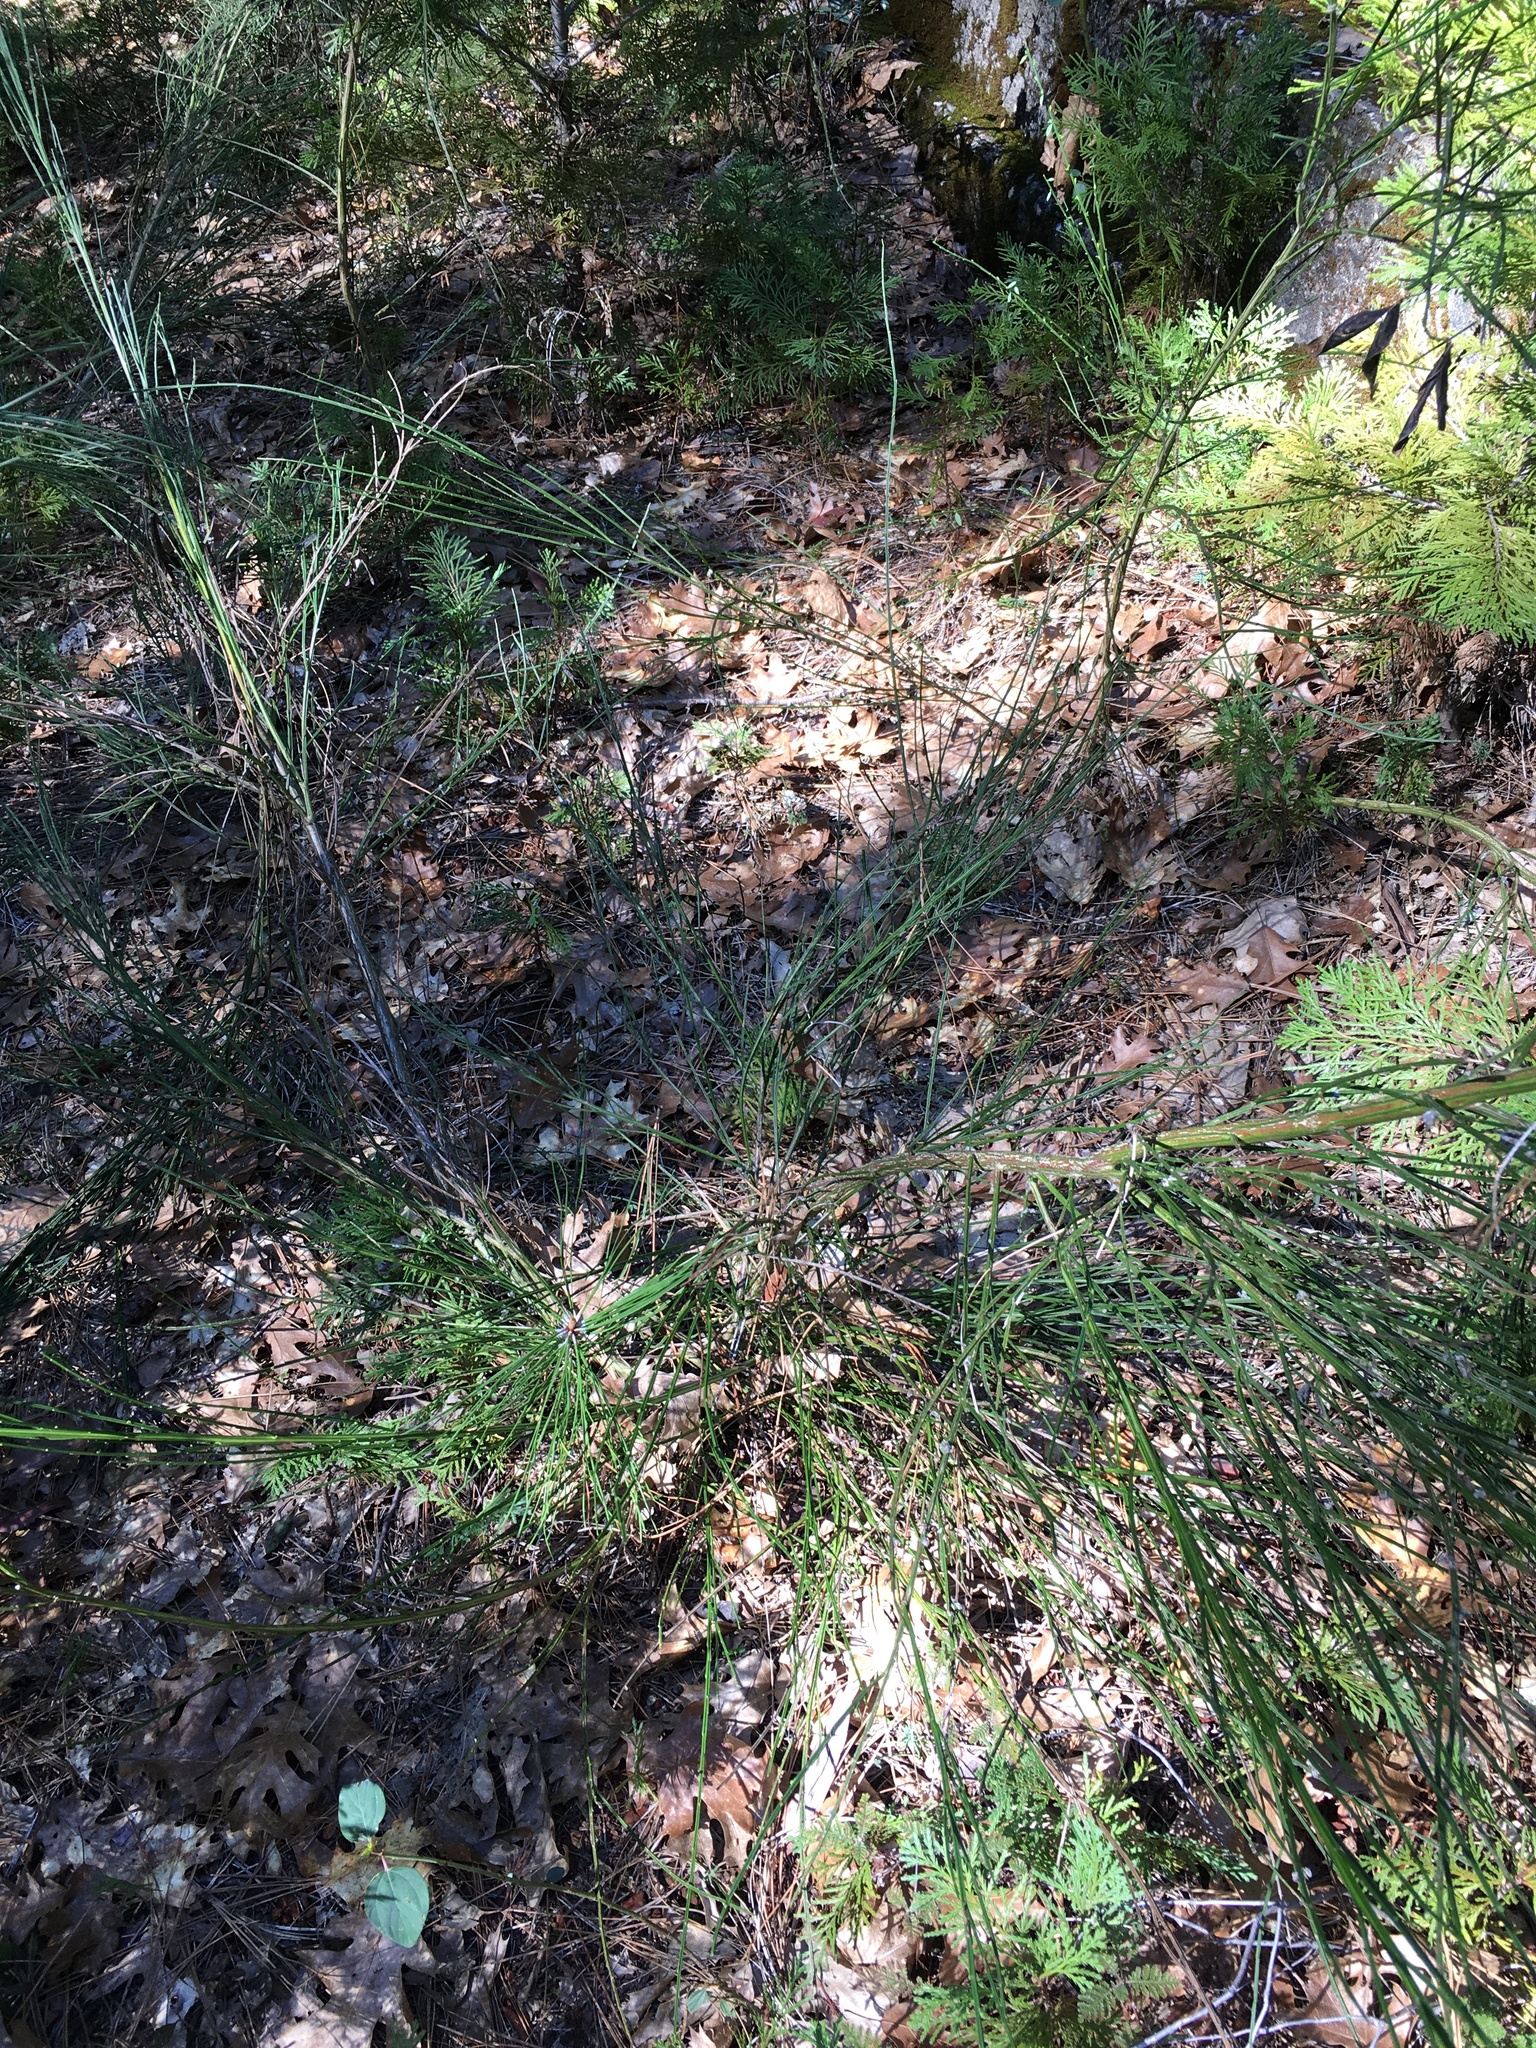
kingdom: Animalia
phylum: Arthropoda
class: Arachnida
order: Trombidiformes
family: Eriophyidae
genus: Aceria
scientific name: Aceria genistae
